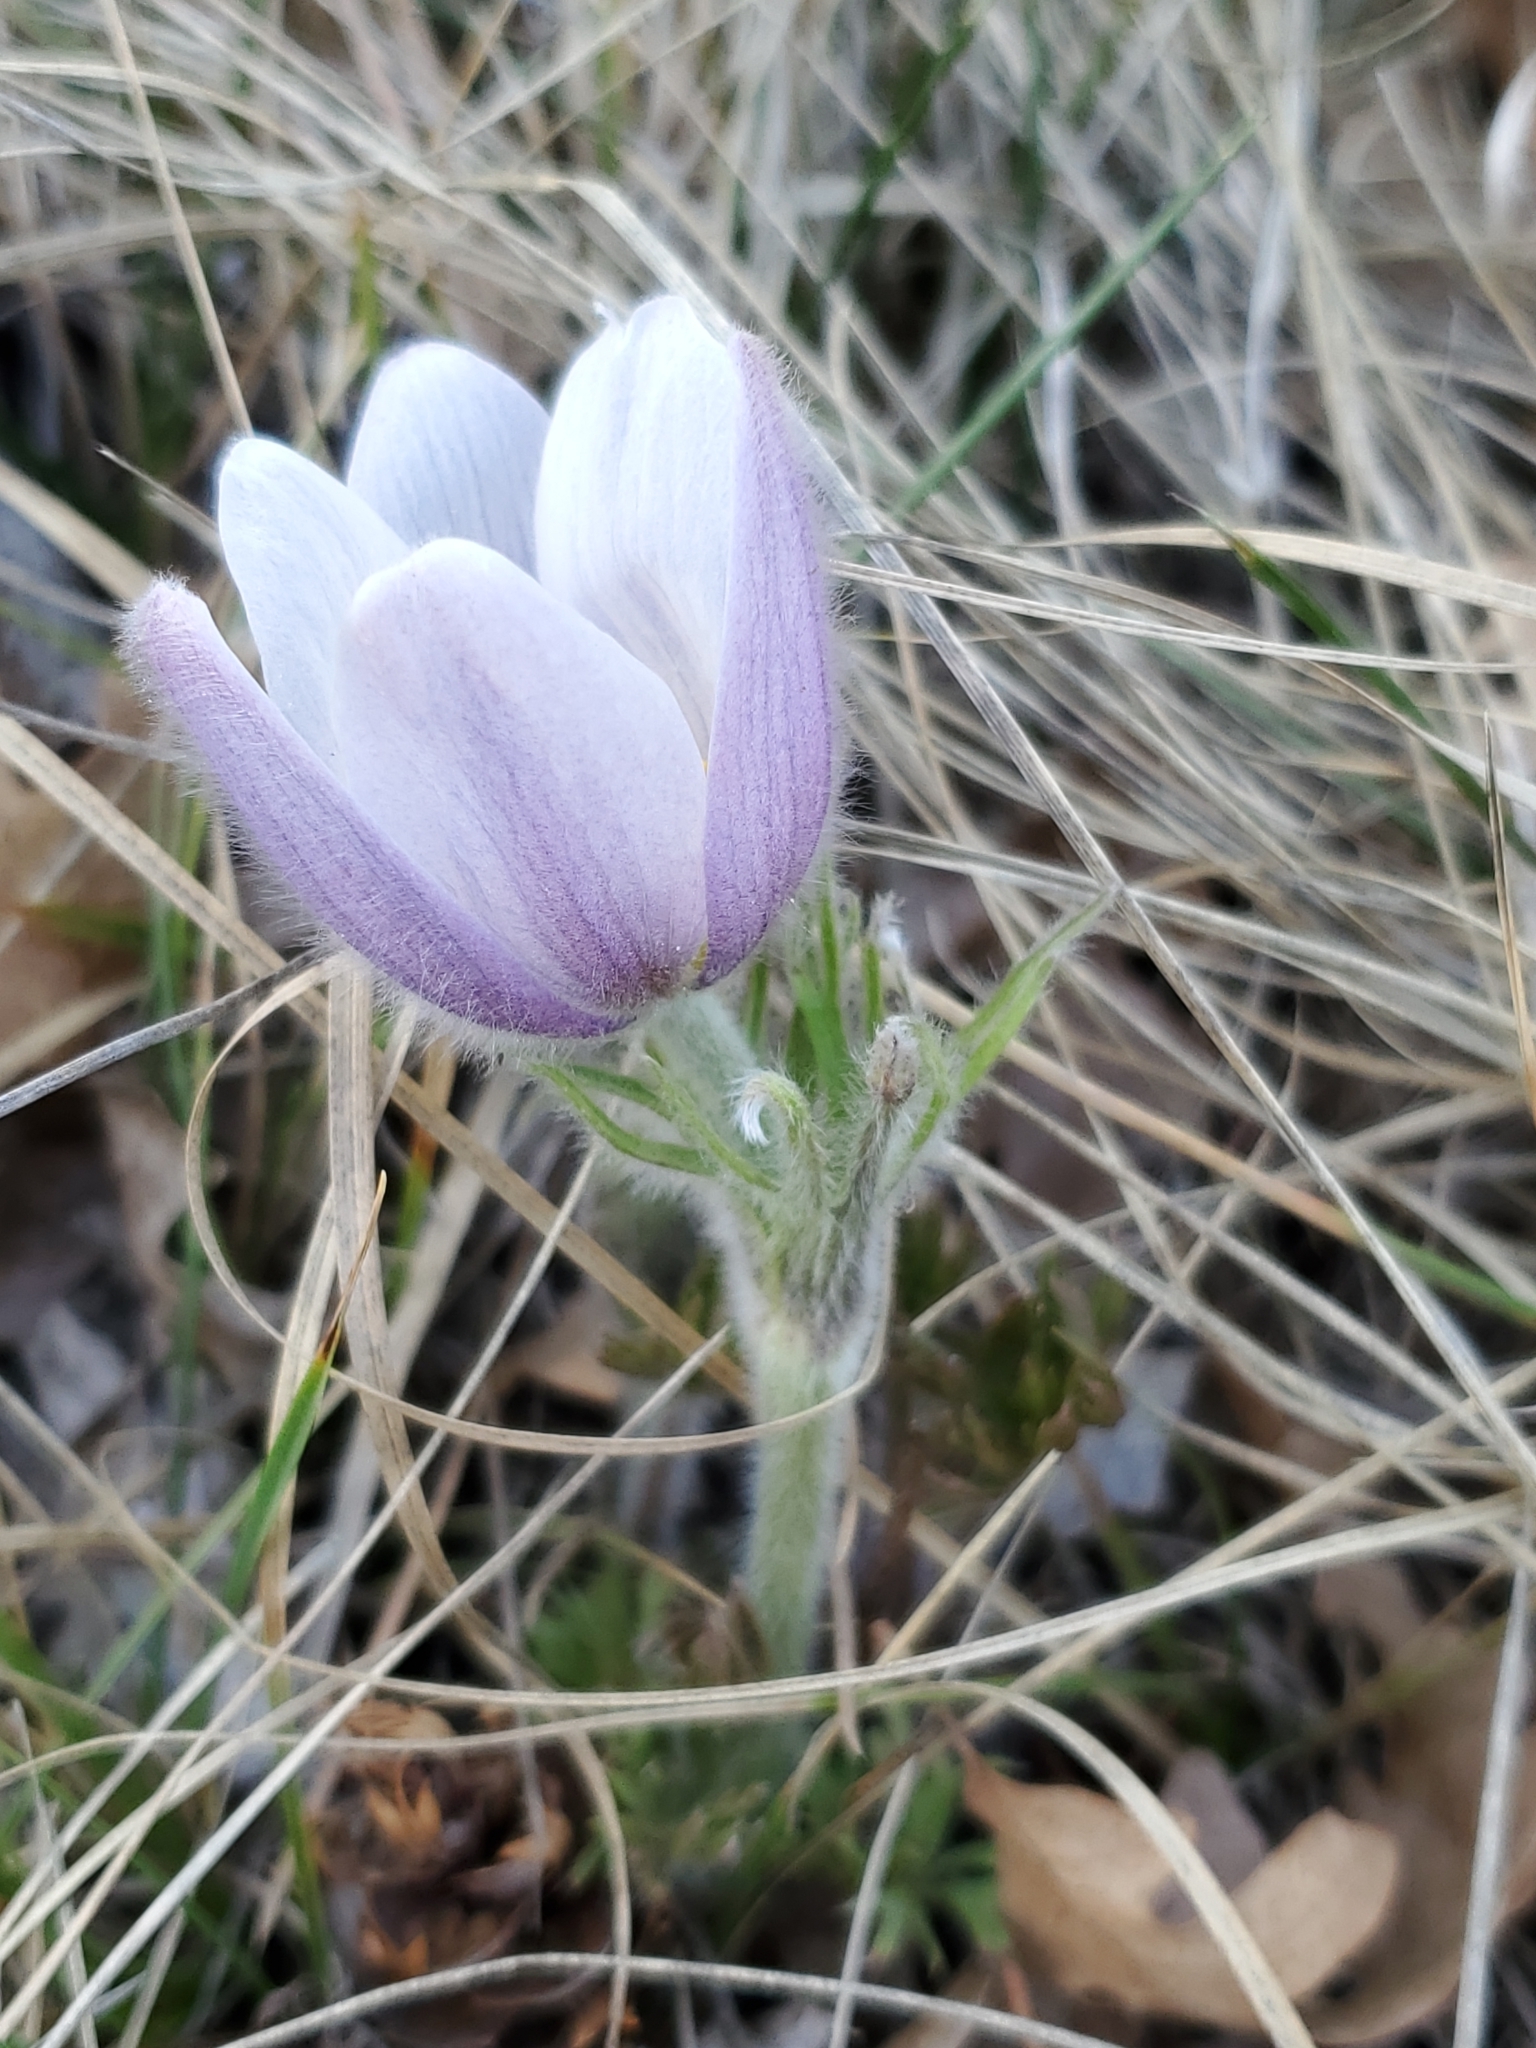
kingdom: Plantae
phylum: Tracheophyta
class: Magnoliopsida
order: Ranunculales
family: Ranunculaceae
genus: Pulsatilla
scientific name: Pulsatilla nuttalliana
